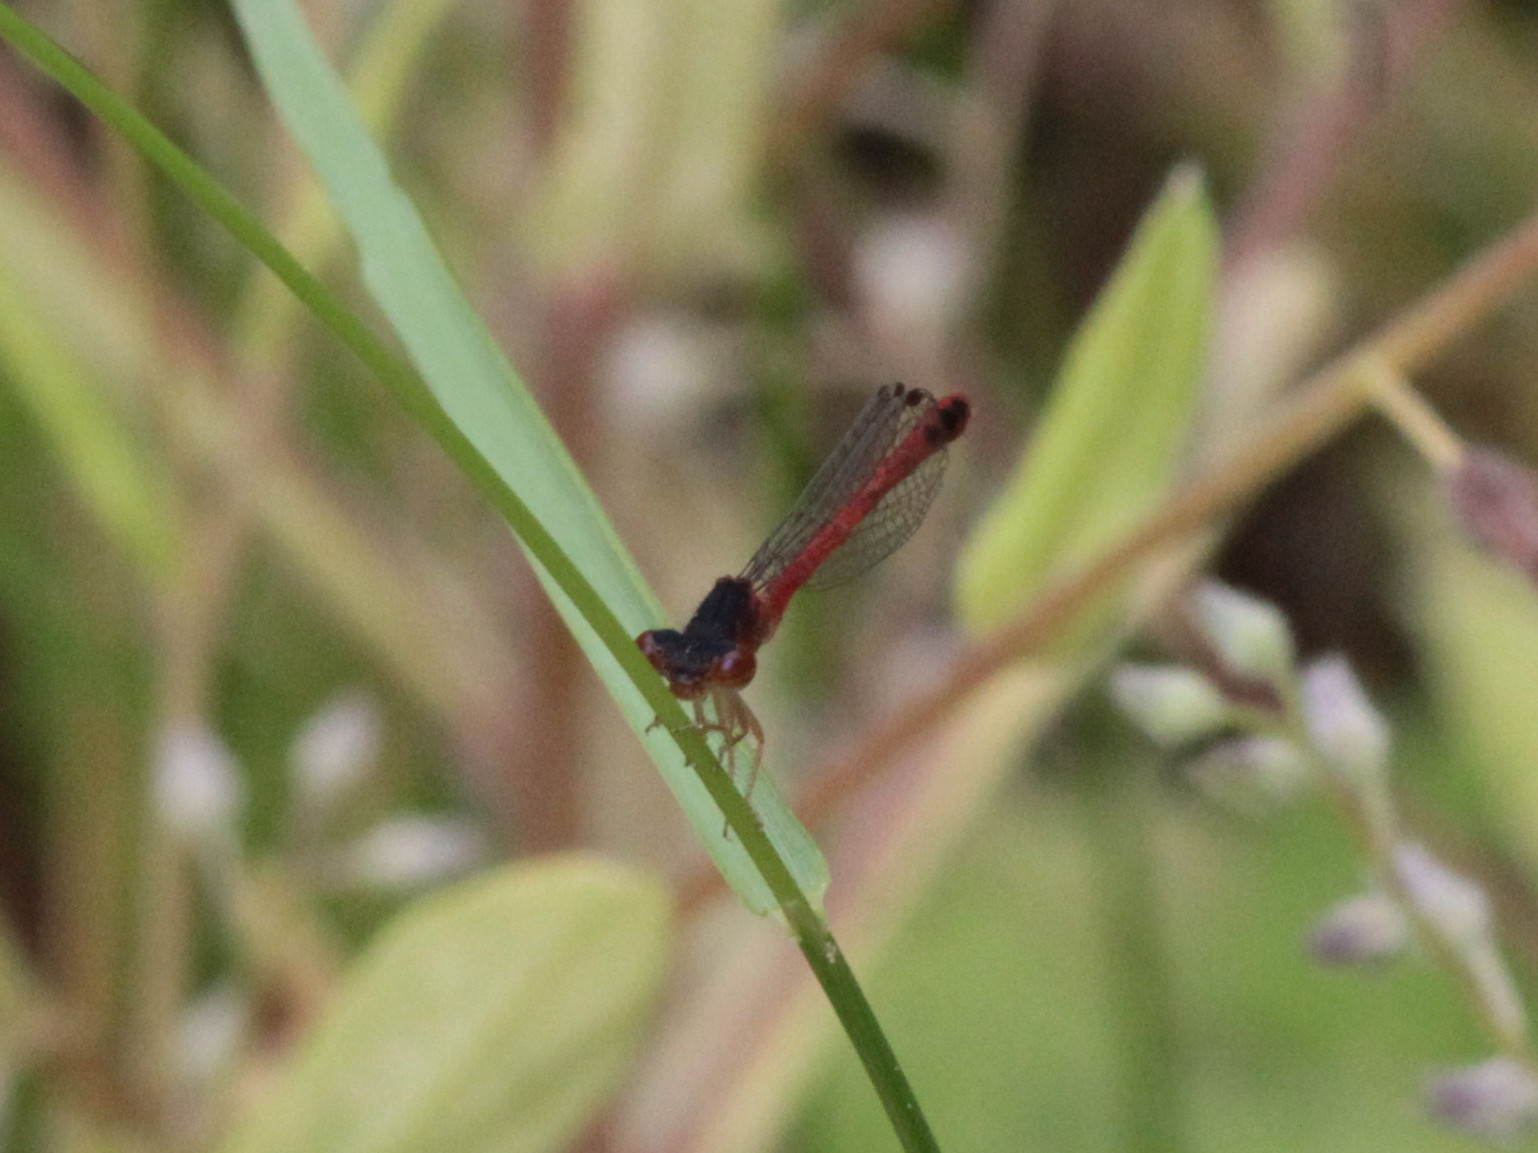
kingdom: Animalia
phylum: Arthropoda
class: Insecta
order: Odonata
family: Coenagrionidae
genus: Amphiagrion
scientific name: Amphiagrion saucium
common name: Eastern red damsel
